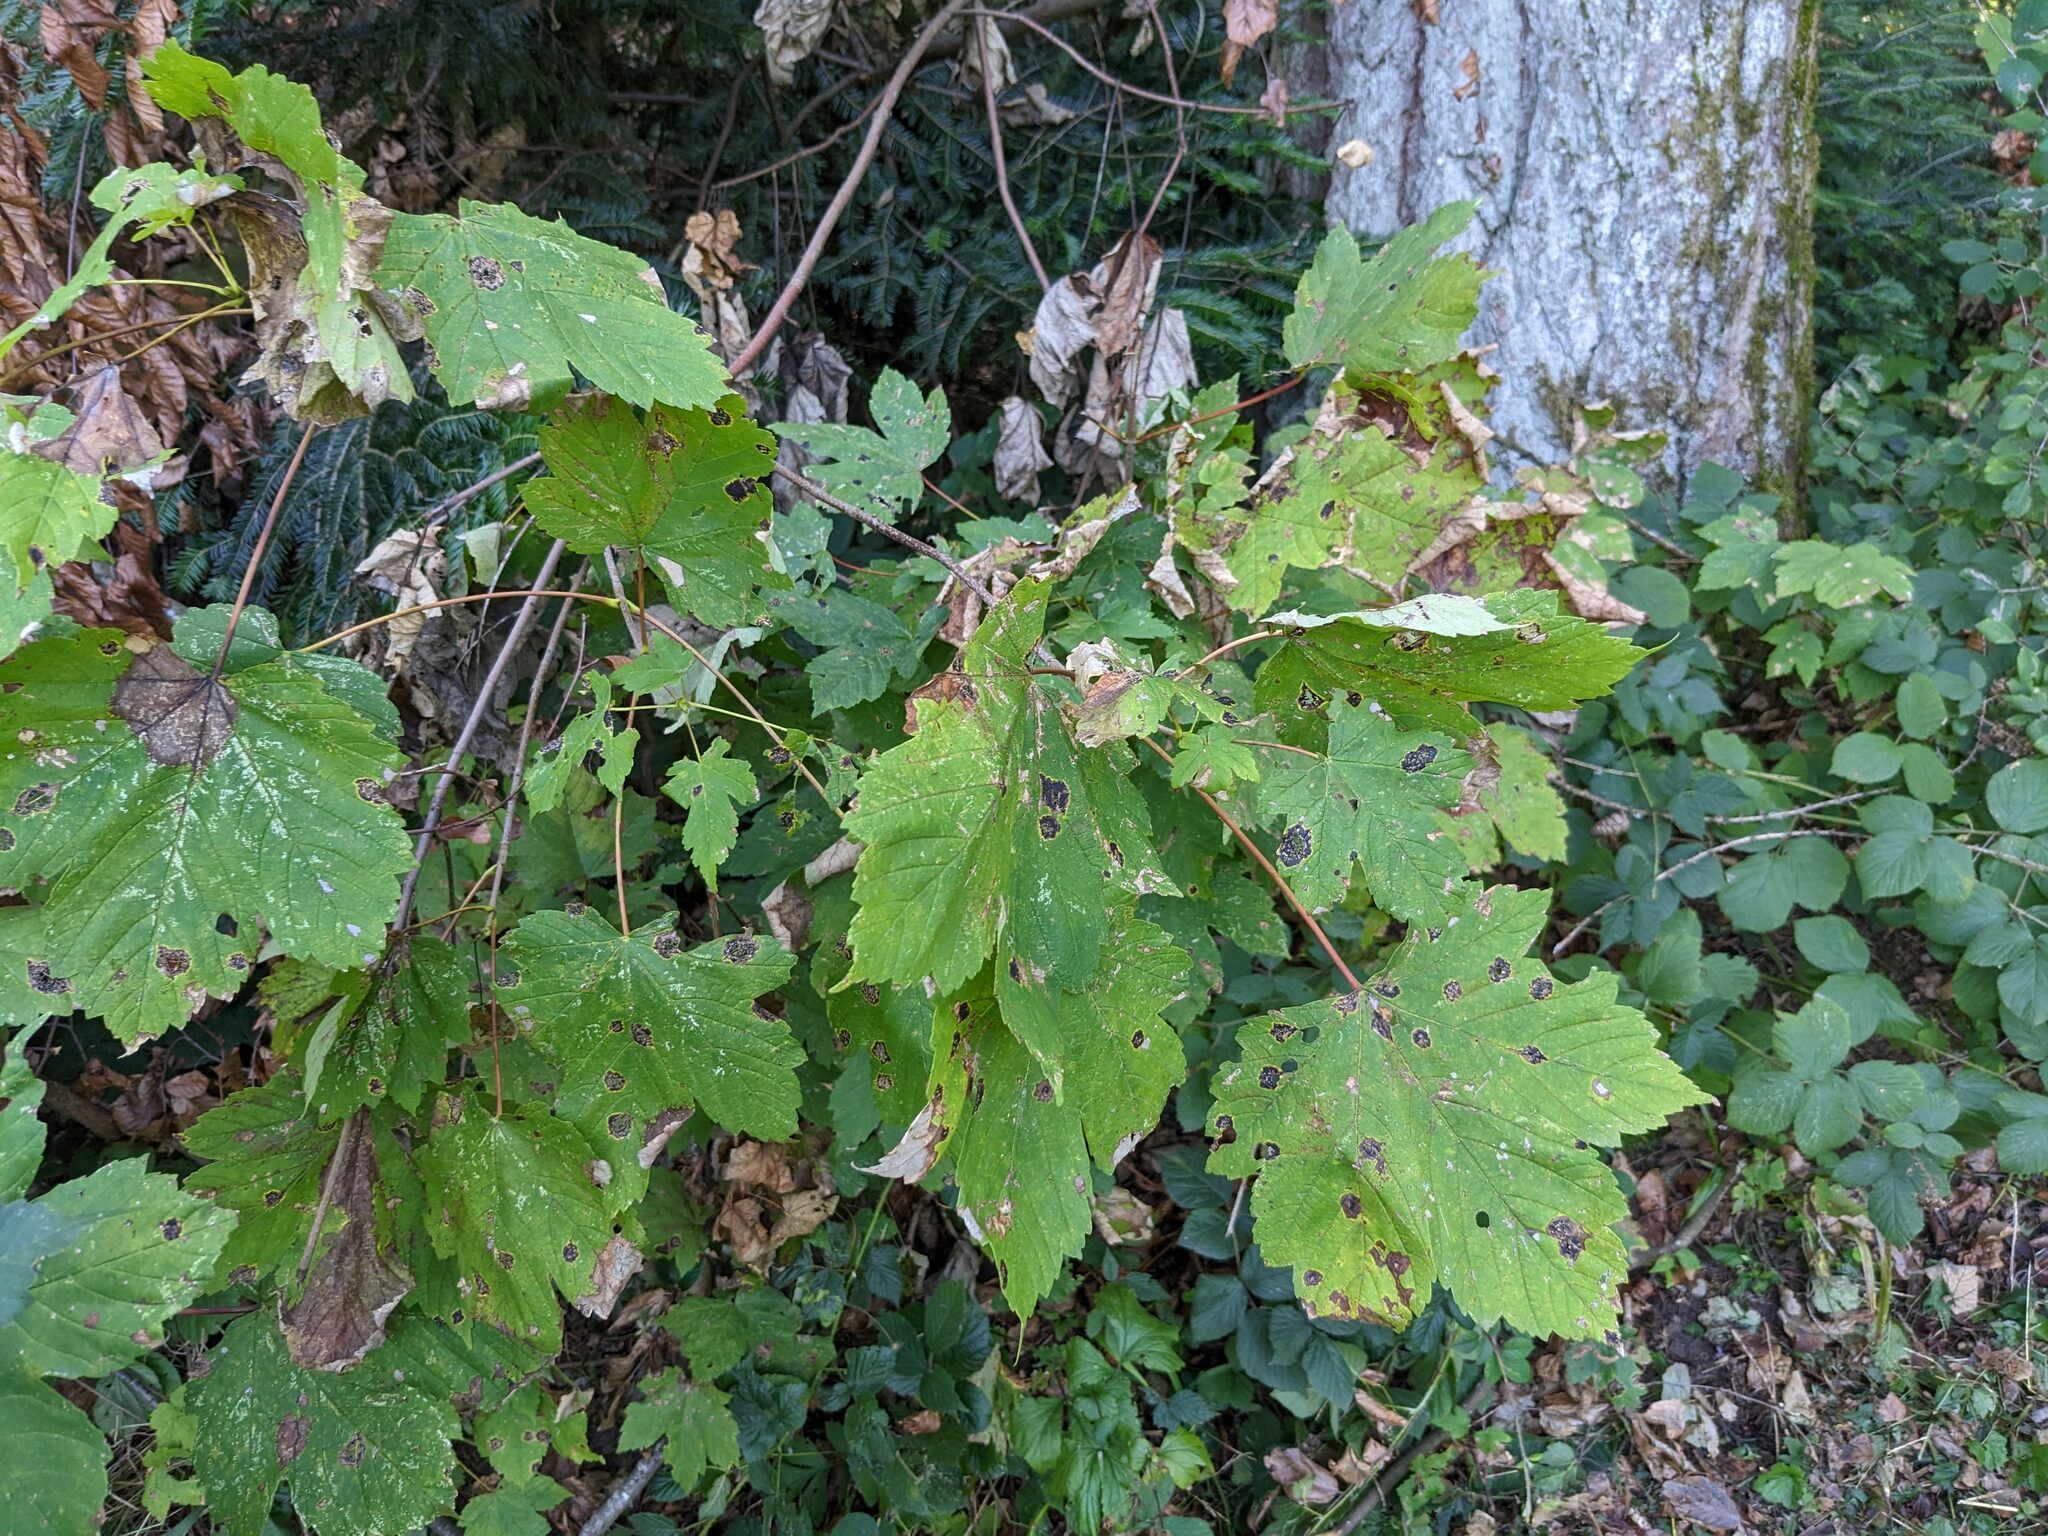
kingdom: Plantae
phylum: Tracheophyta
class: Magnoliopsida
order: Sapindales
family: Sapindaceae
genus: Acer
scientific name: Acer pseudoplatanus
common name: Sycamore
